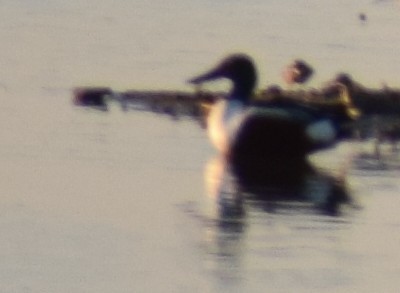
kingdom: Animalia
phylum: Chordata
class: Aves
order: Anseriformes
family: Anatidae
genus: Spatula
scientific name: Spatula clypeata
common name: Northern shoveler
